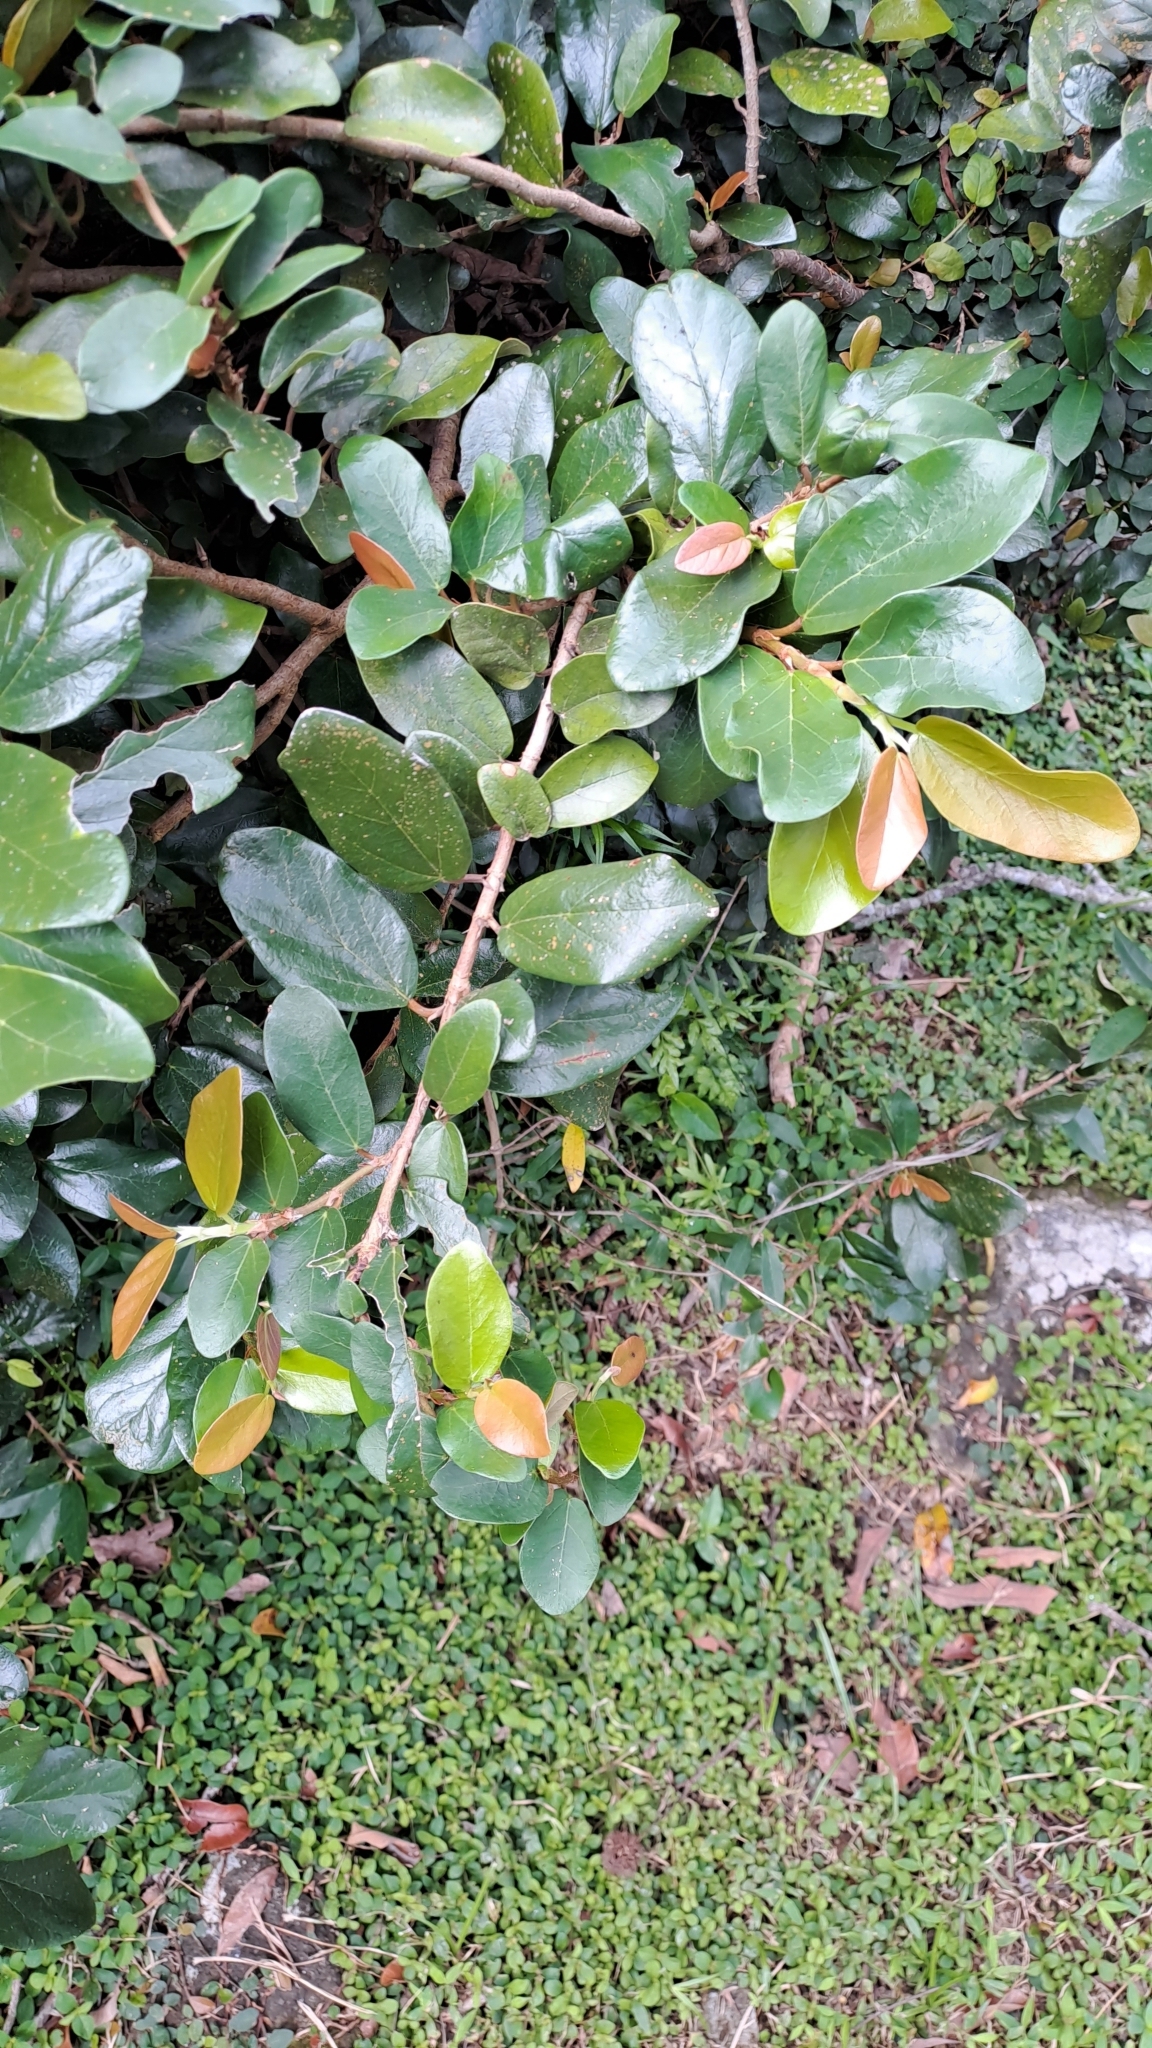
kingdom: Plantae
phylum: Tracheophyta
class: Magnoliopsida
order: Rosales
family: Moraceae
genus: Ficus
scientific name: Ficus pumila
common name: Climbingfig
